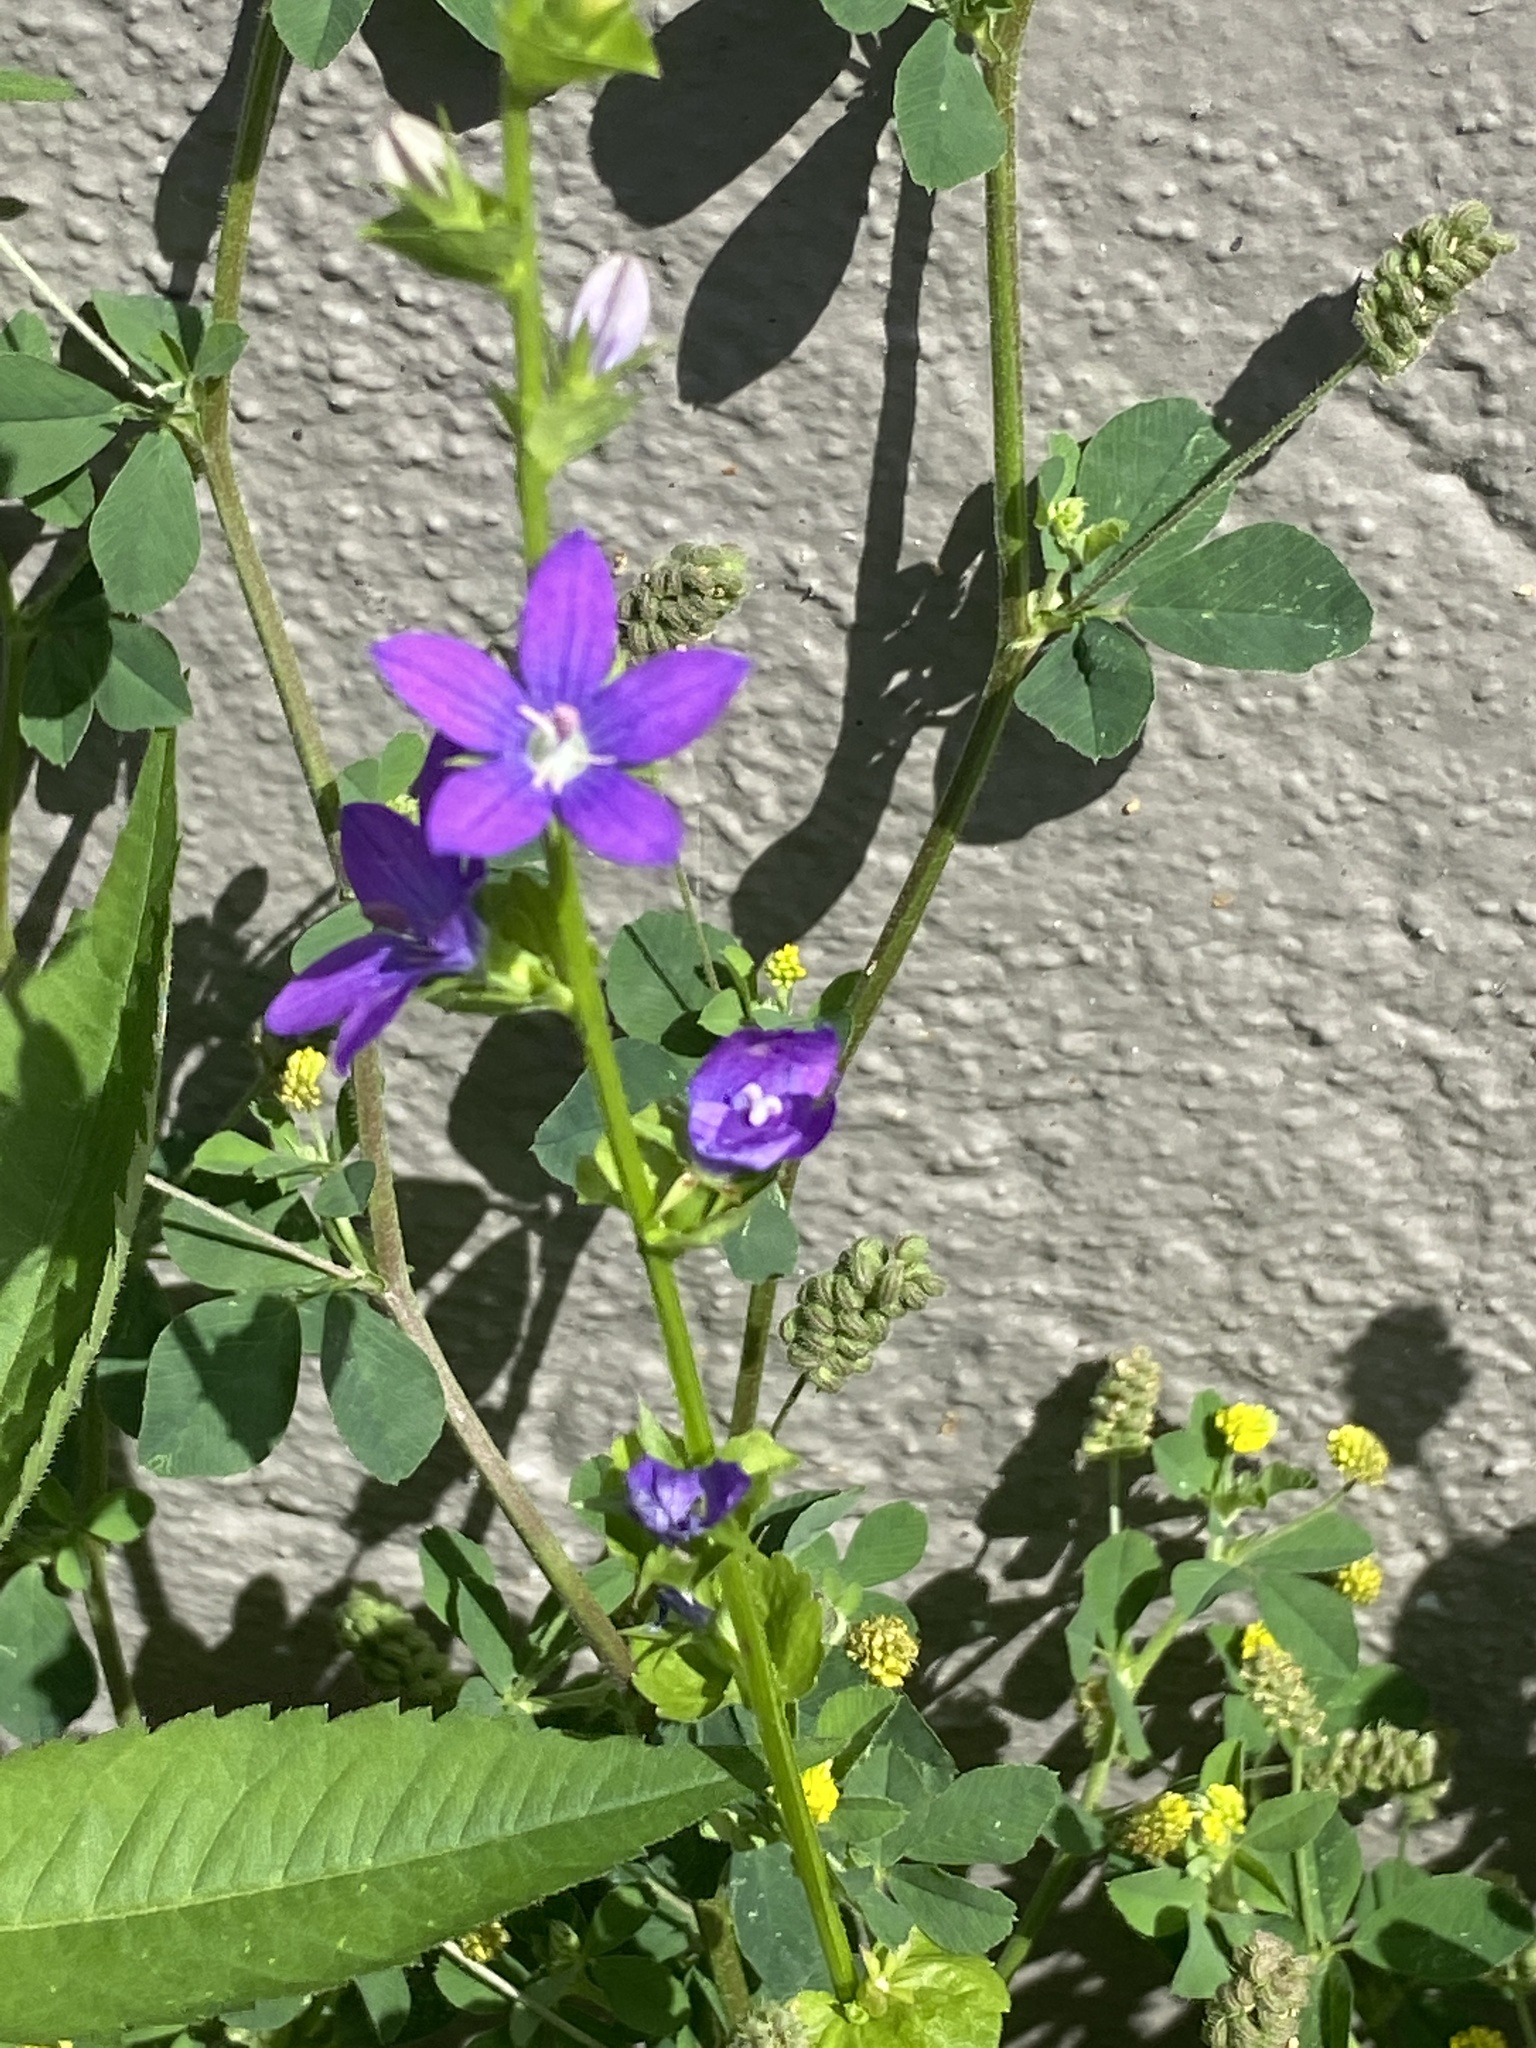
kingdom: Plantae
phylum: Tracheophyta
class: Magnoliopsida
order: Asterales
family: Campanulaceae
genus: Triodanis
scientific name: Triodanis perfoliata
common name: Clasping venus' looking-glass
